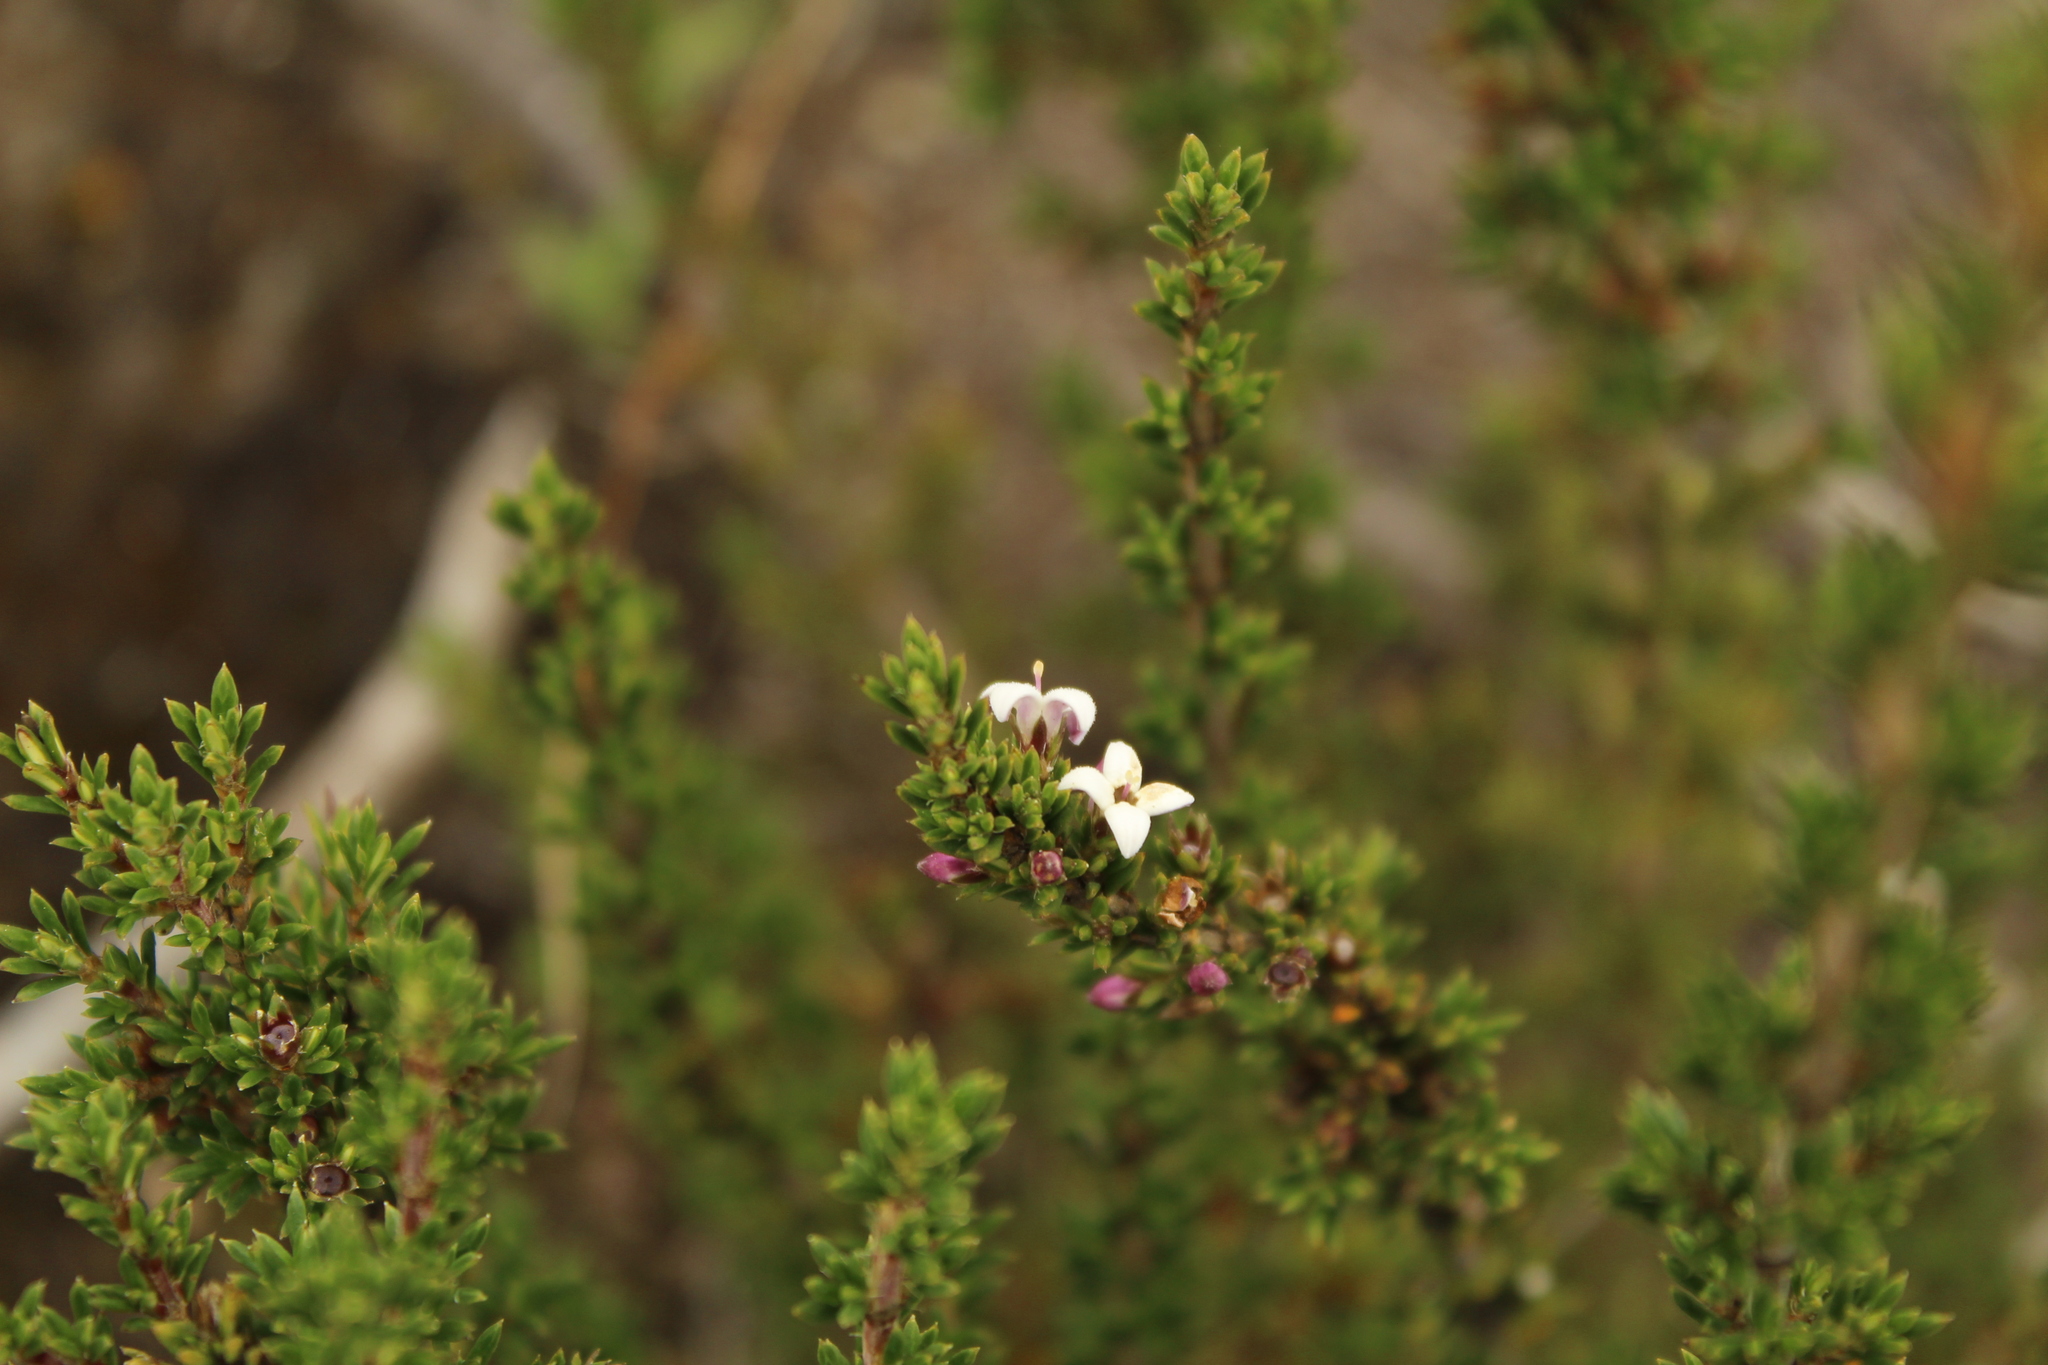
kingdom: Plantae
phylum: Tracheophyta
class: Magnoliopsida
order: Gentianales
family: Rubiaceae
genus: Arcytophyllum
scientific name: Arcytophyllum nitidum
